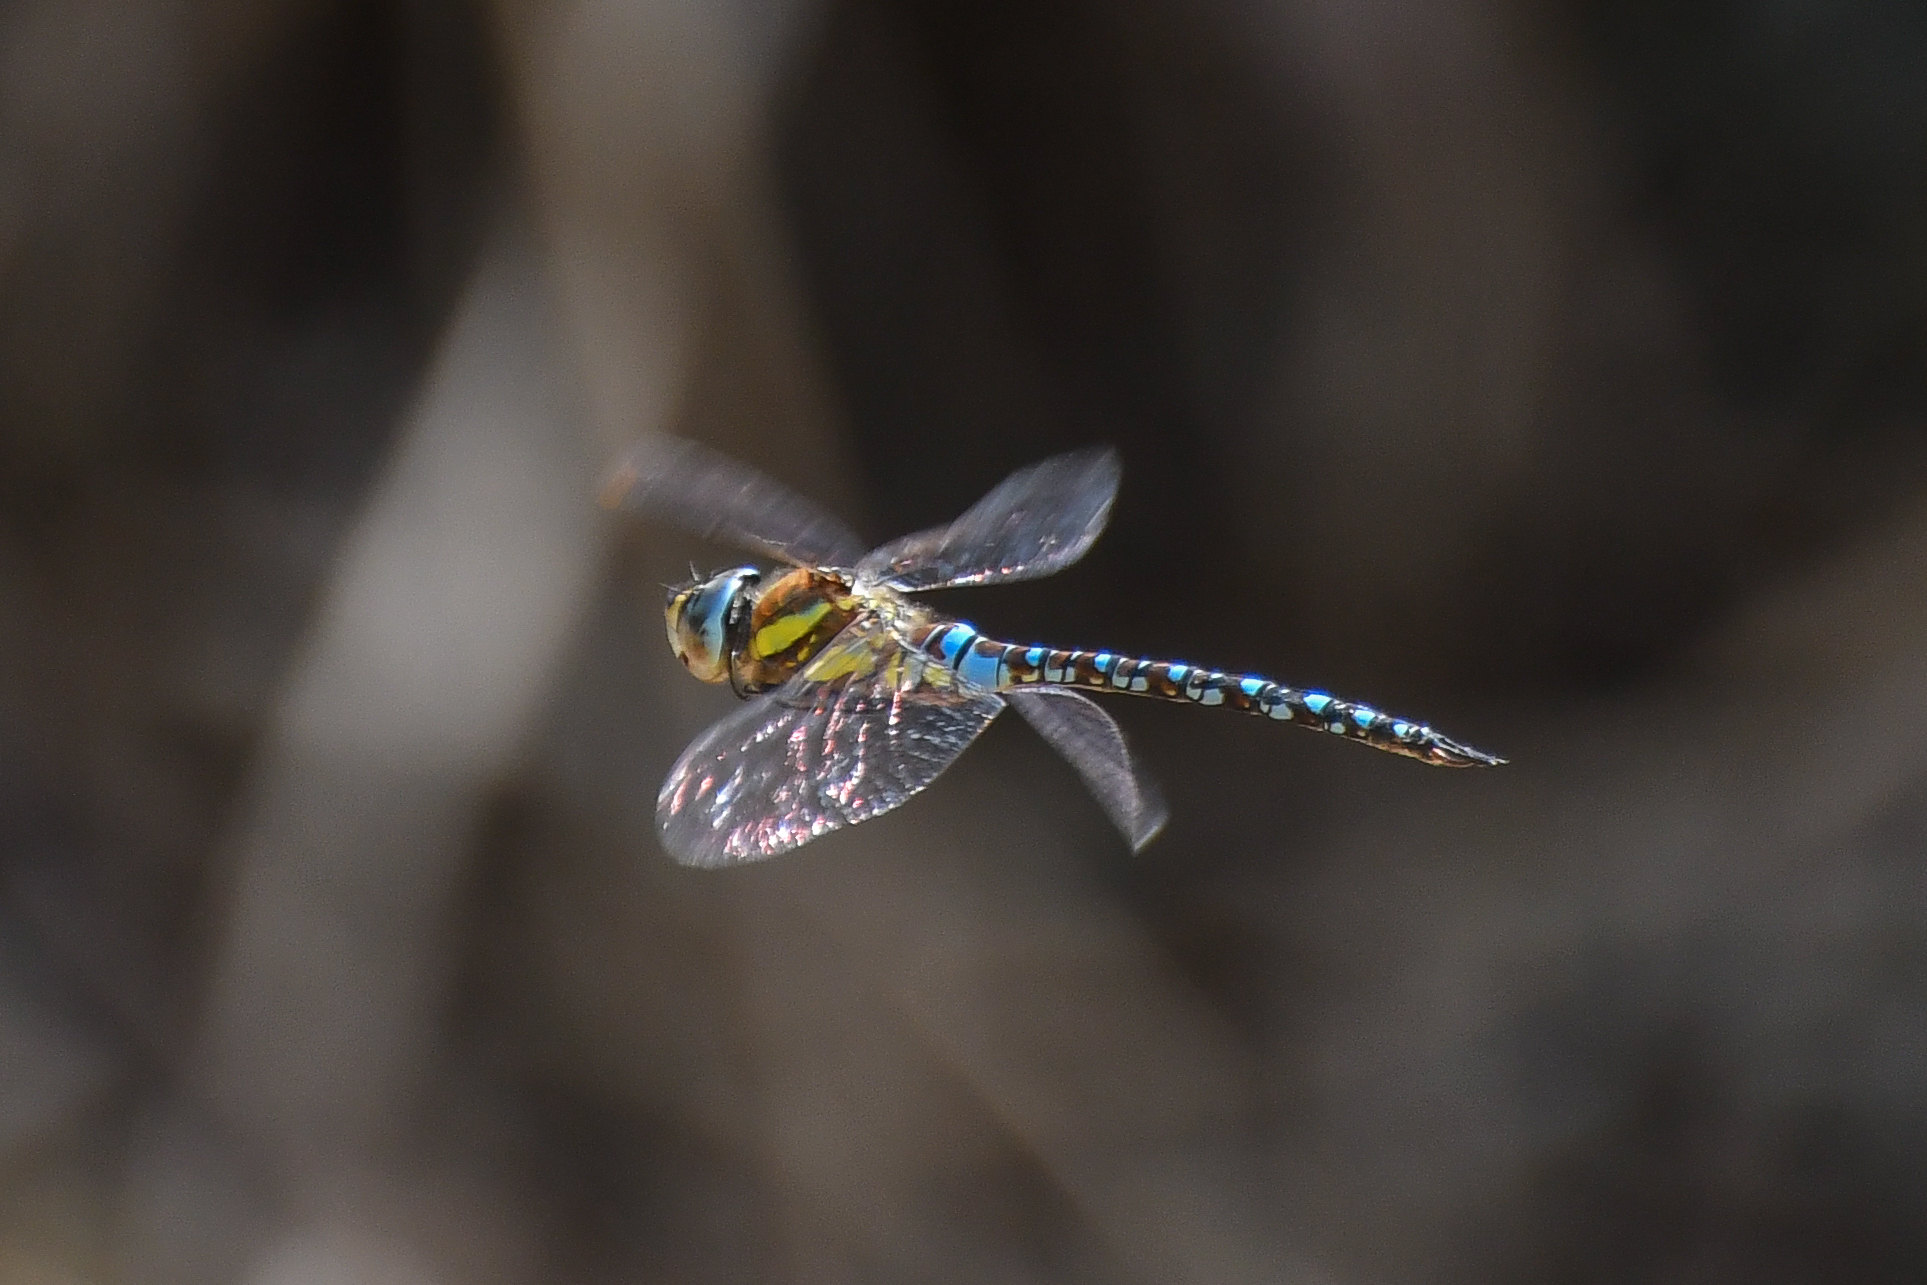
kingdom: Animalia
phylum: Arthropoda
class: Insecta
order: Odonata
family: Aeshnidae
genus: Aeshna
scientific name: Aeshna mixta
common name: Migrant hawker
